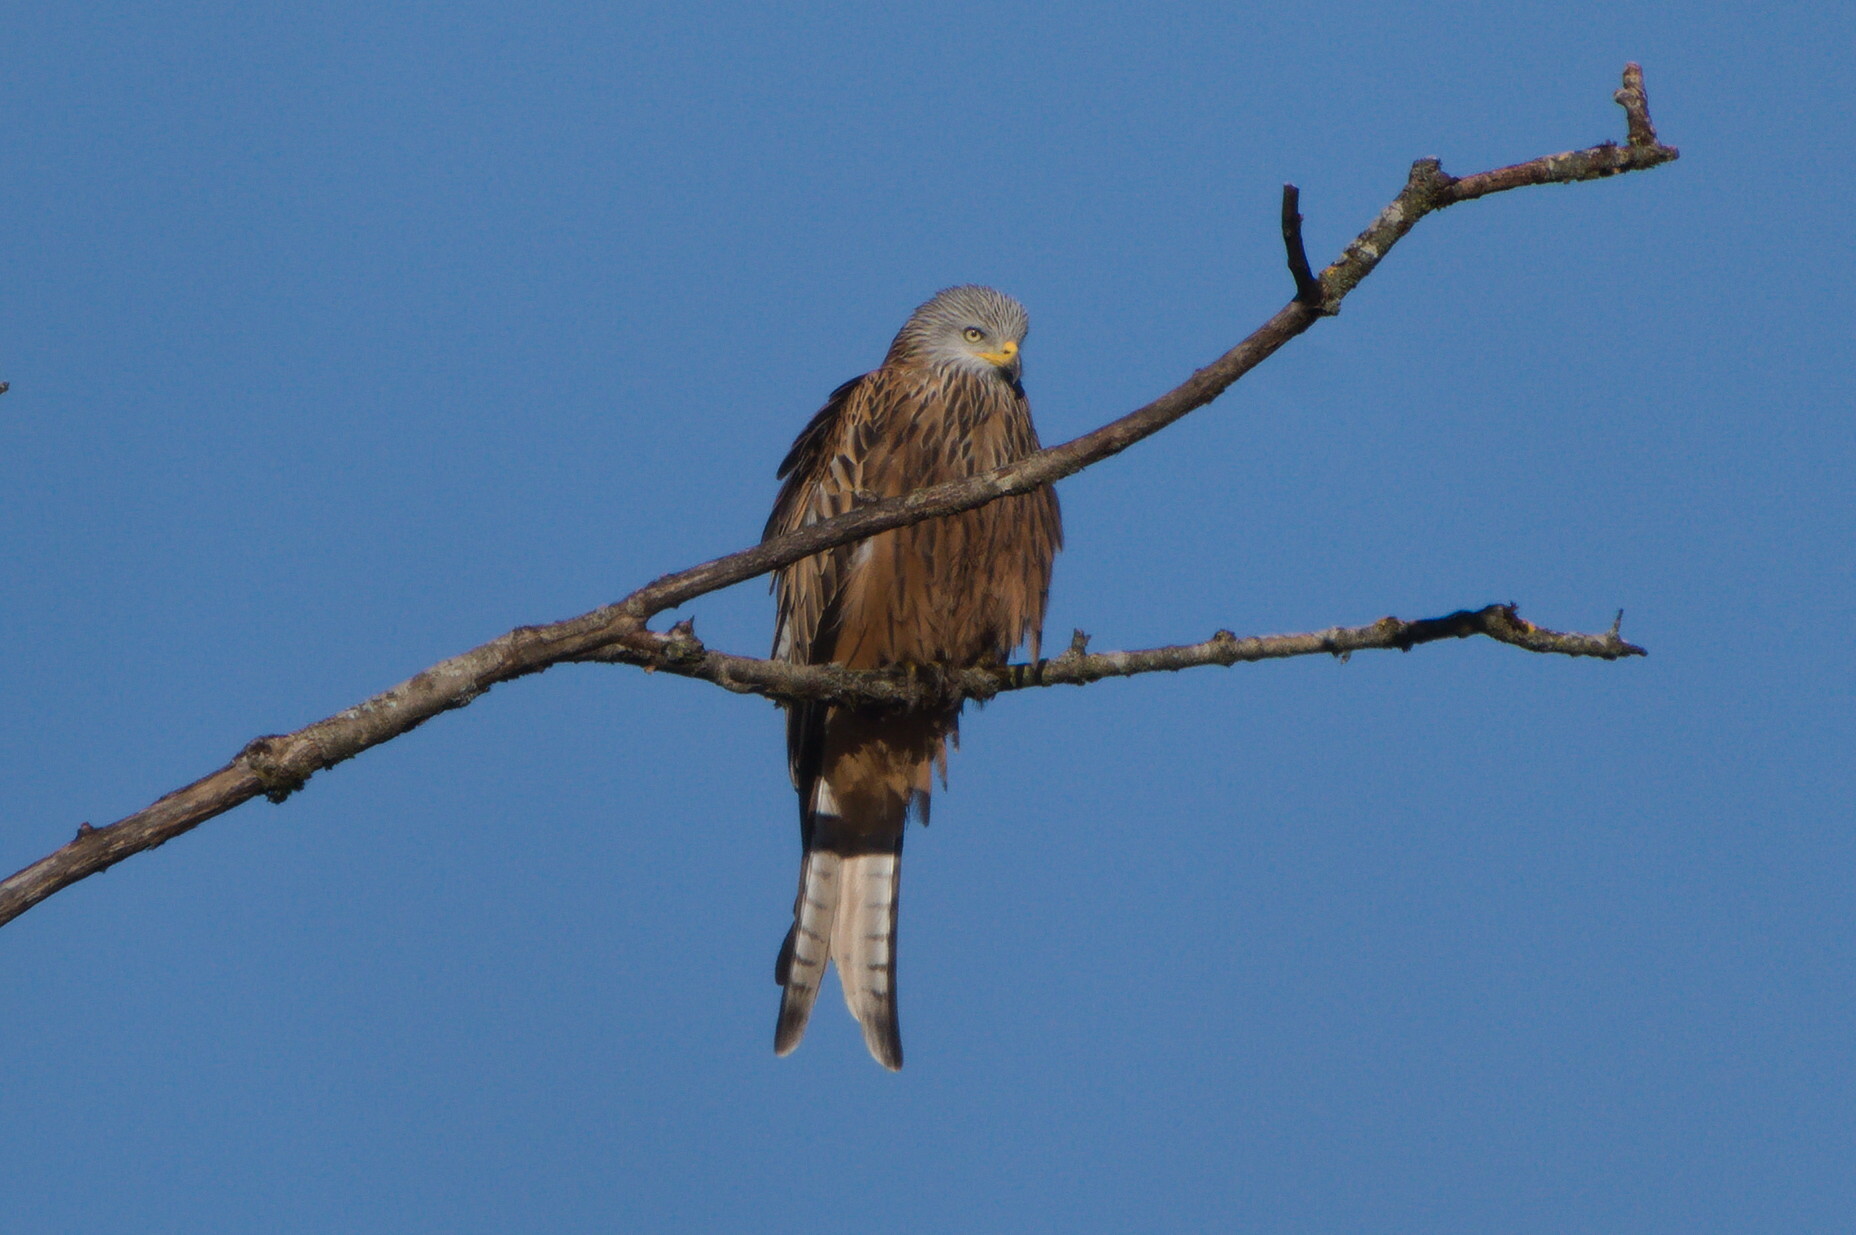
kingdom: Animalia
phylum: Chordata
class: Aves
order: Accipitriformes
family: Accipitridae
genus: Milvus
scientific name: Milvus milvus
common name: Red kite
